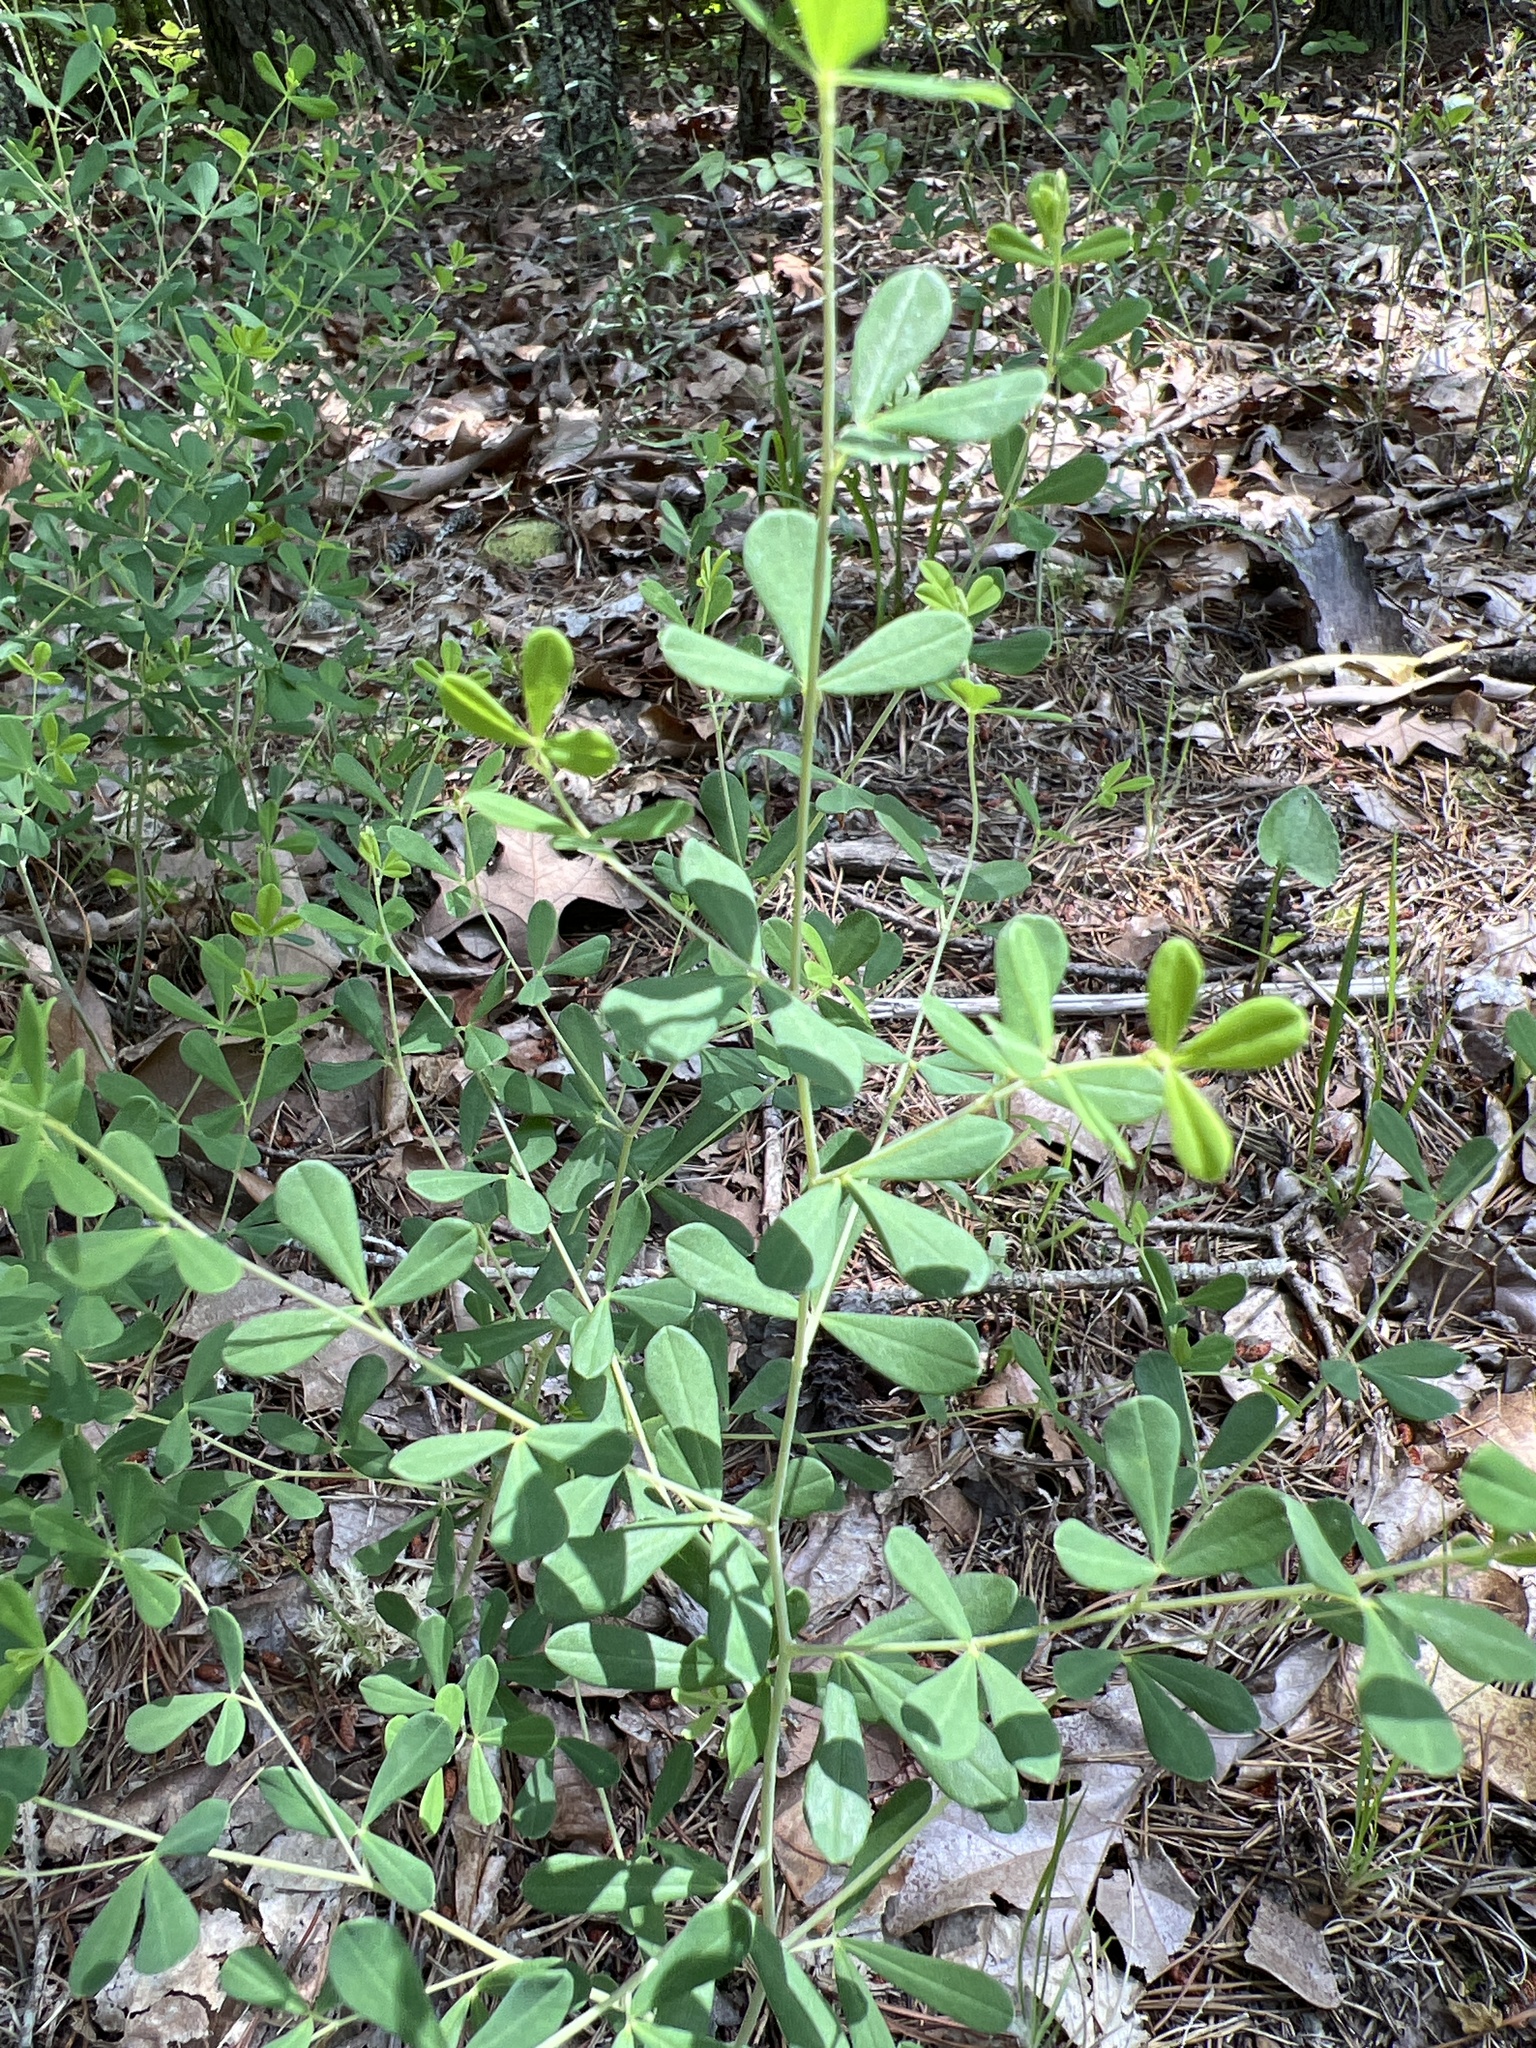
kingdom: Plantae
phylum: Tracheophyta
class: Magnoliopsida
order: Fabales
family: Fabaceae
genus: Baptisia
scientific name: Baptisia tinctoria
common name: Wild indigo
